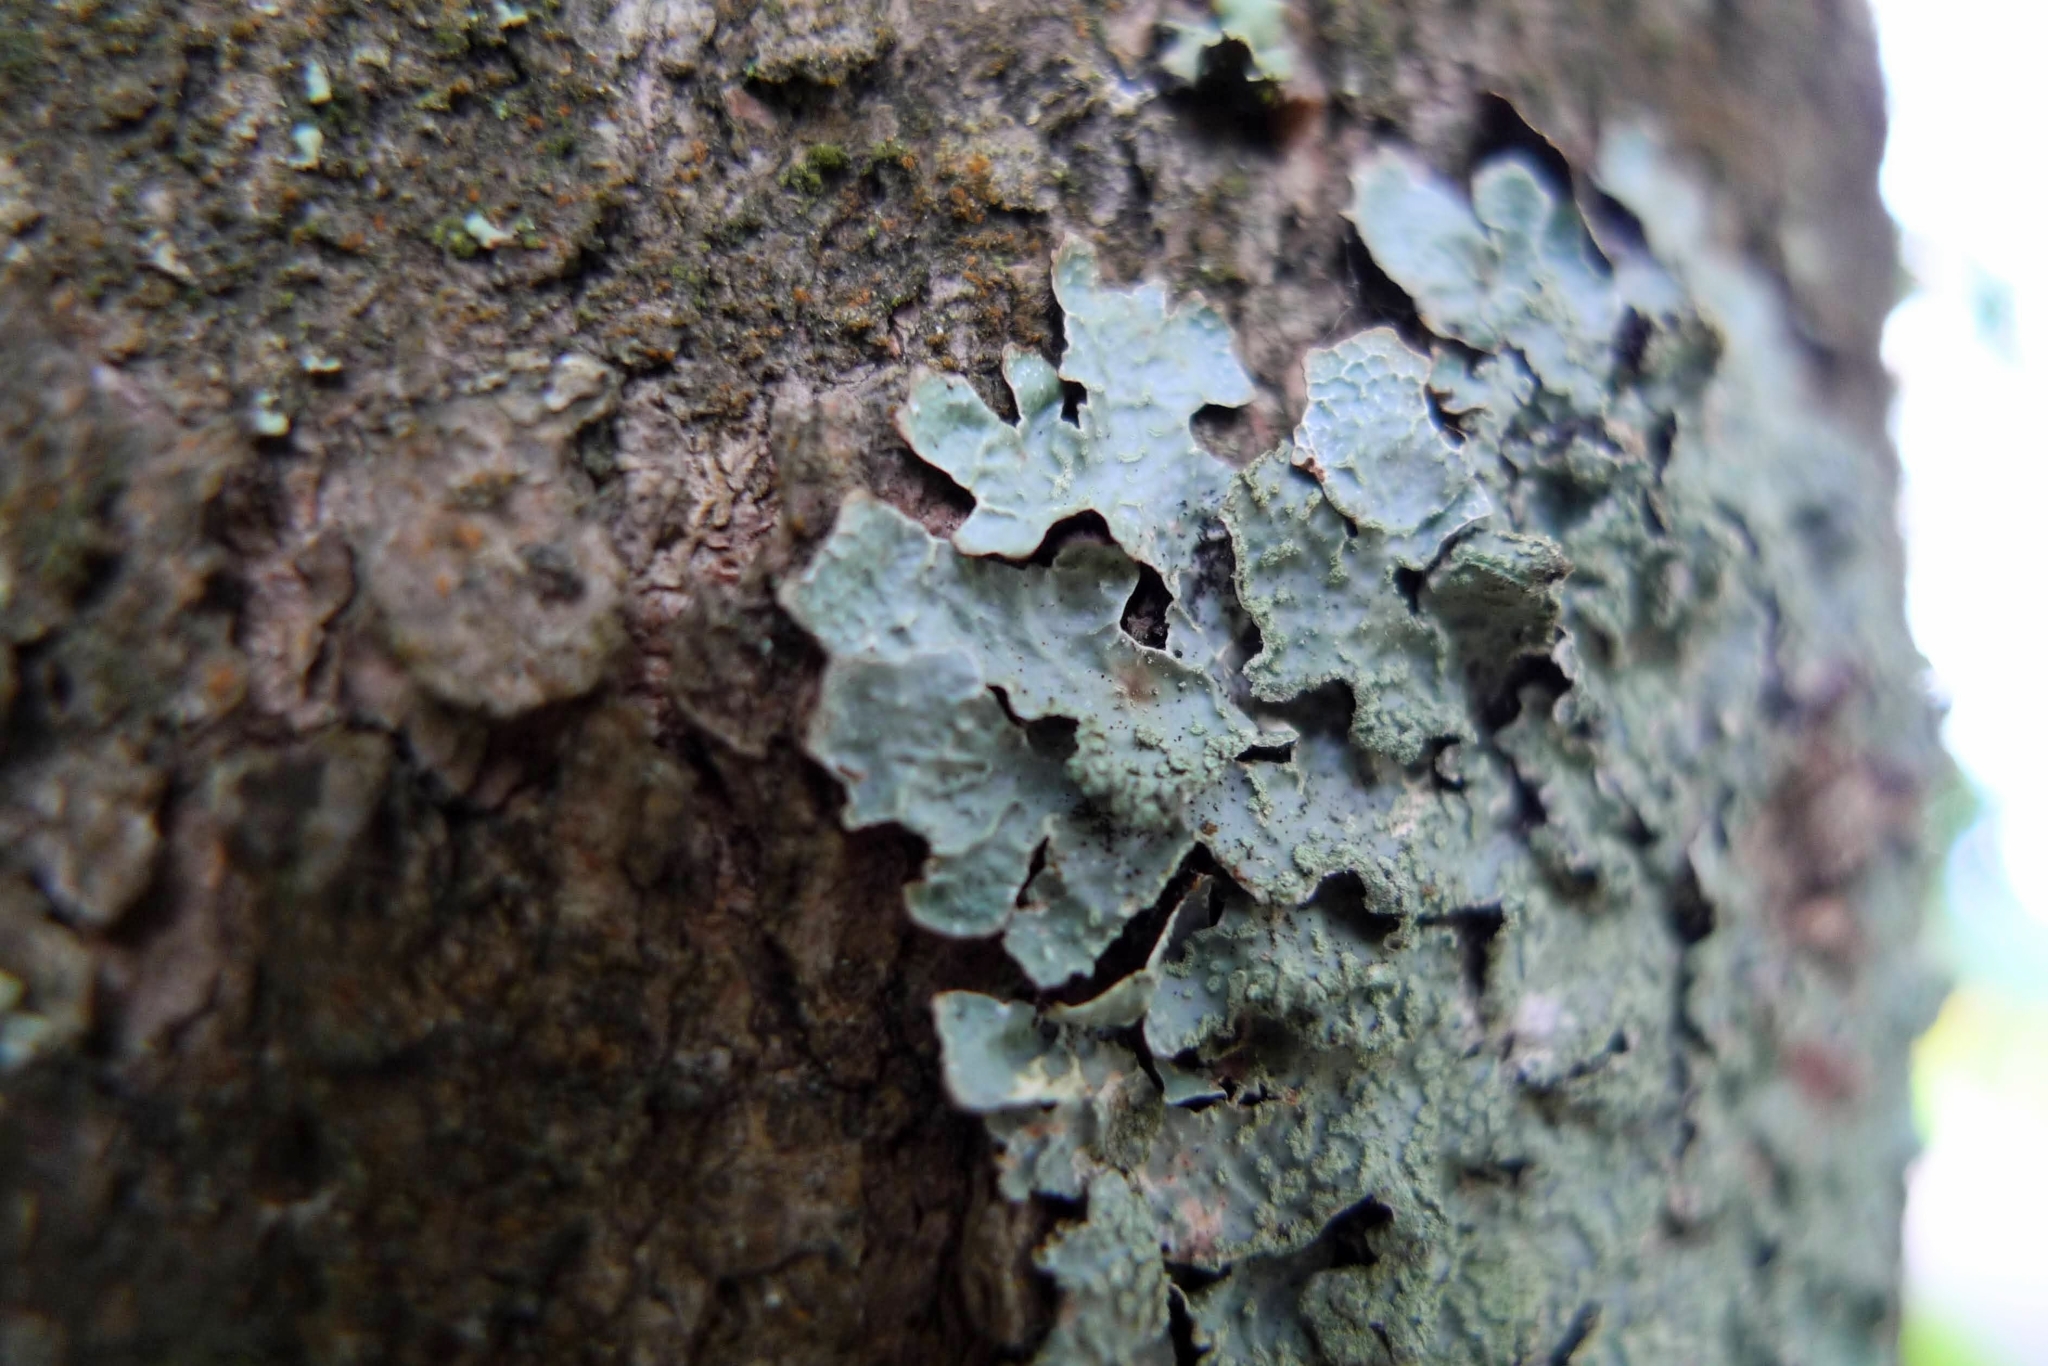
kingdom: Fungi
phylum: Ascomycota
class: Lecanoromycetes
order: Lecanorales
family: Parmeliaceae
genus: Parmelia
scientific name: Parmelia sulcata
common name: Netted shield lichen
